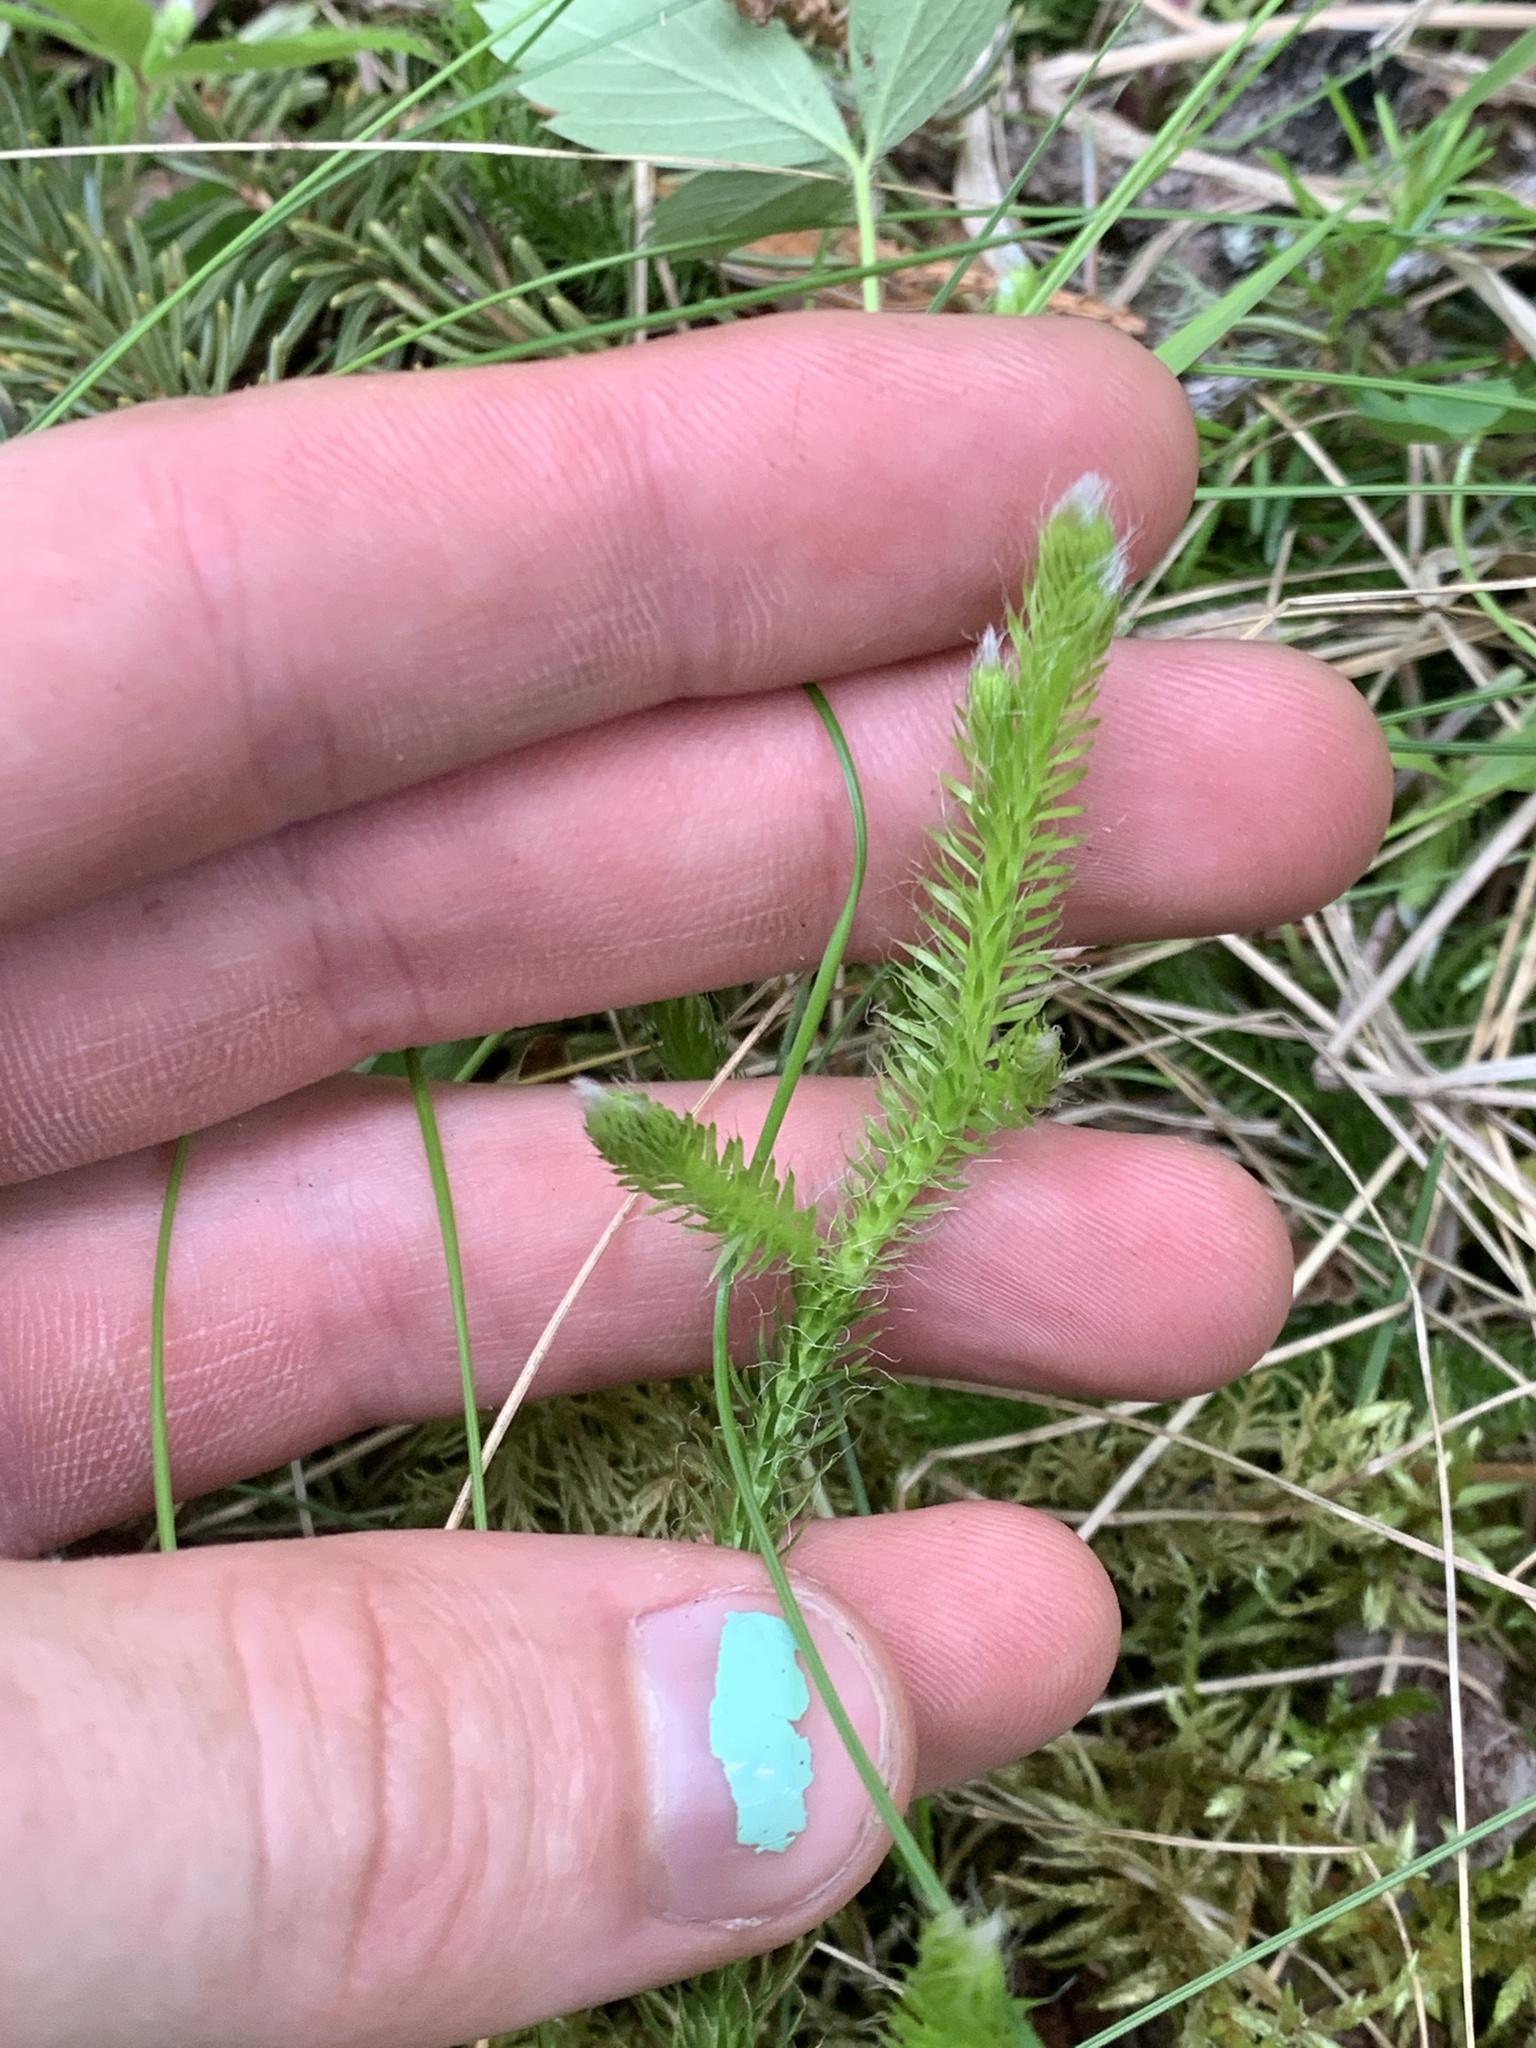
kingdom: Plantae
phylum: Tracheophyta
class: Lycopodiopsida
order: Lycopodiales
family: Lycopodiaceae
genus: Lycopodium
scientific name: Lycopodium lagopus
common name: One-cone clubmoss
